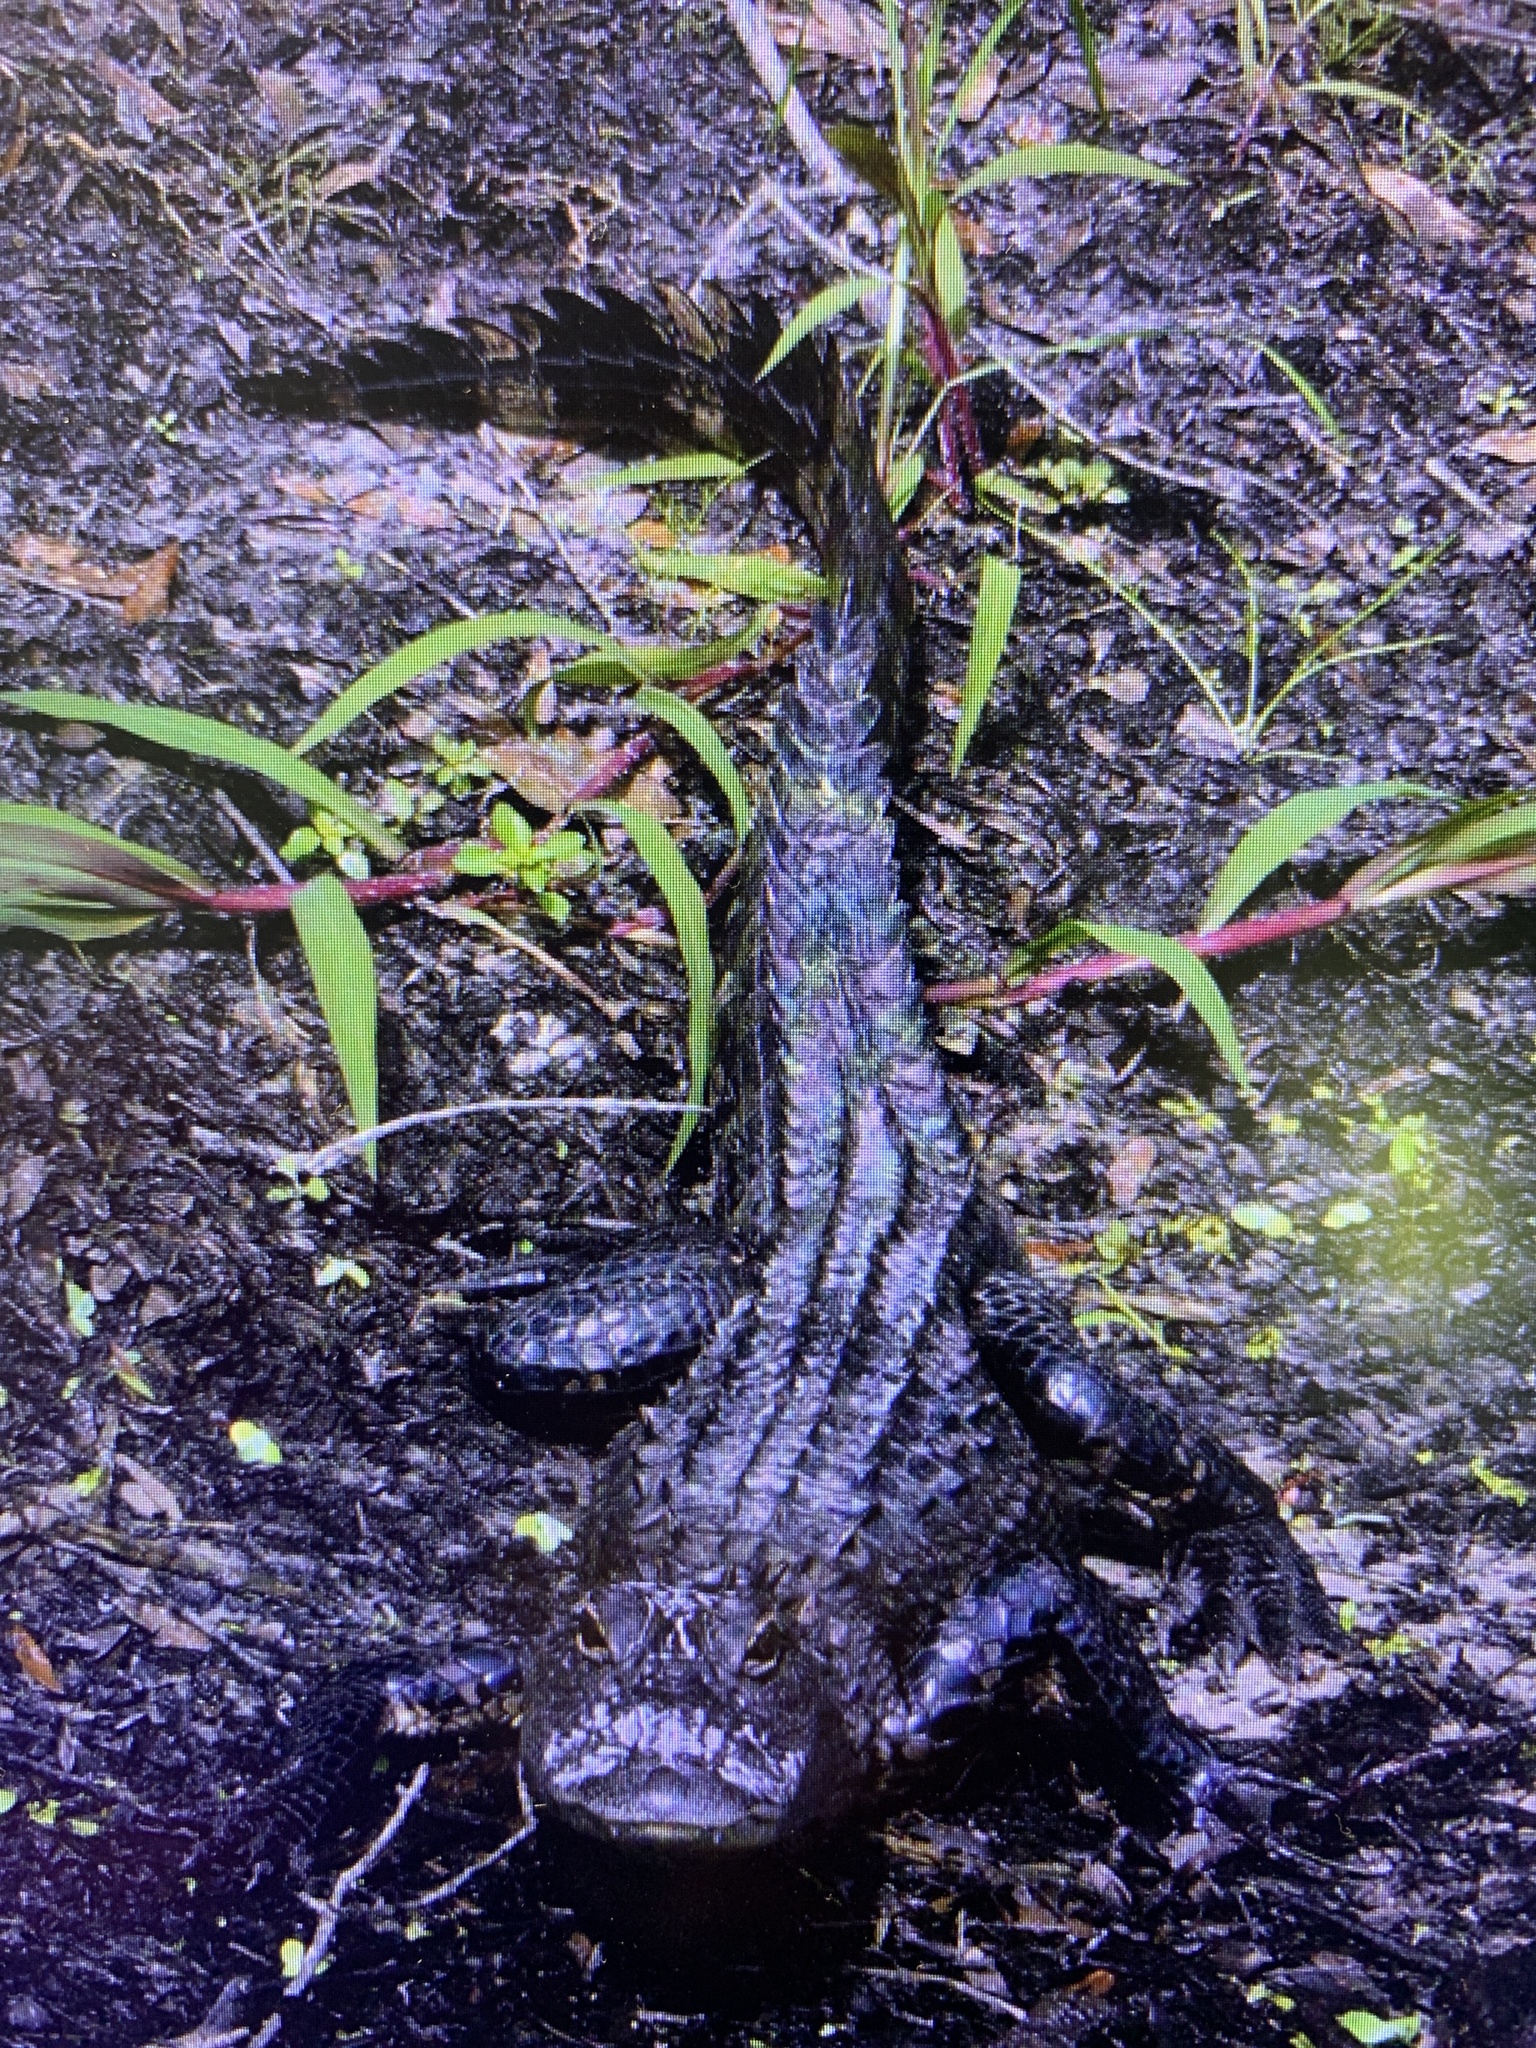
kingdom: Animalia
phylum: Chordata
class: Crocodylia
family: Alligatoridae
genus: Alligator
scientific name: Alligator mississippiensis
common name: American alligator
